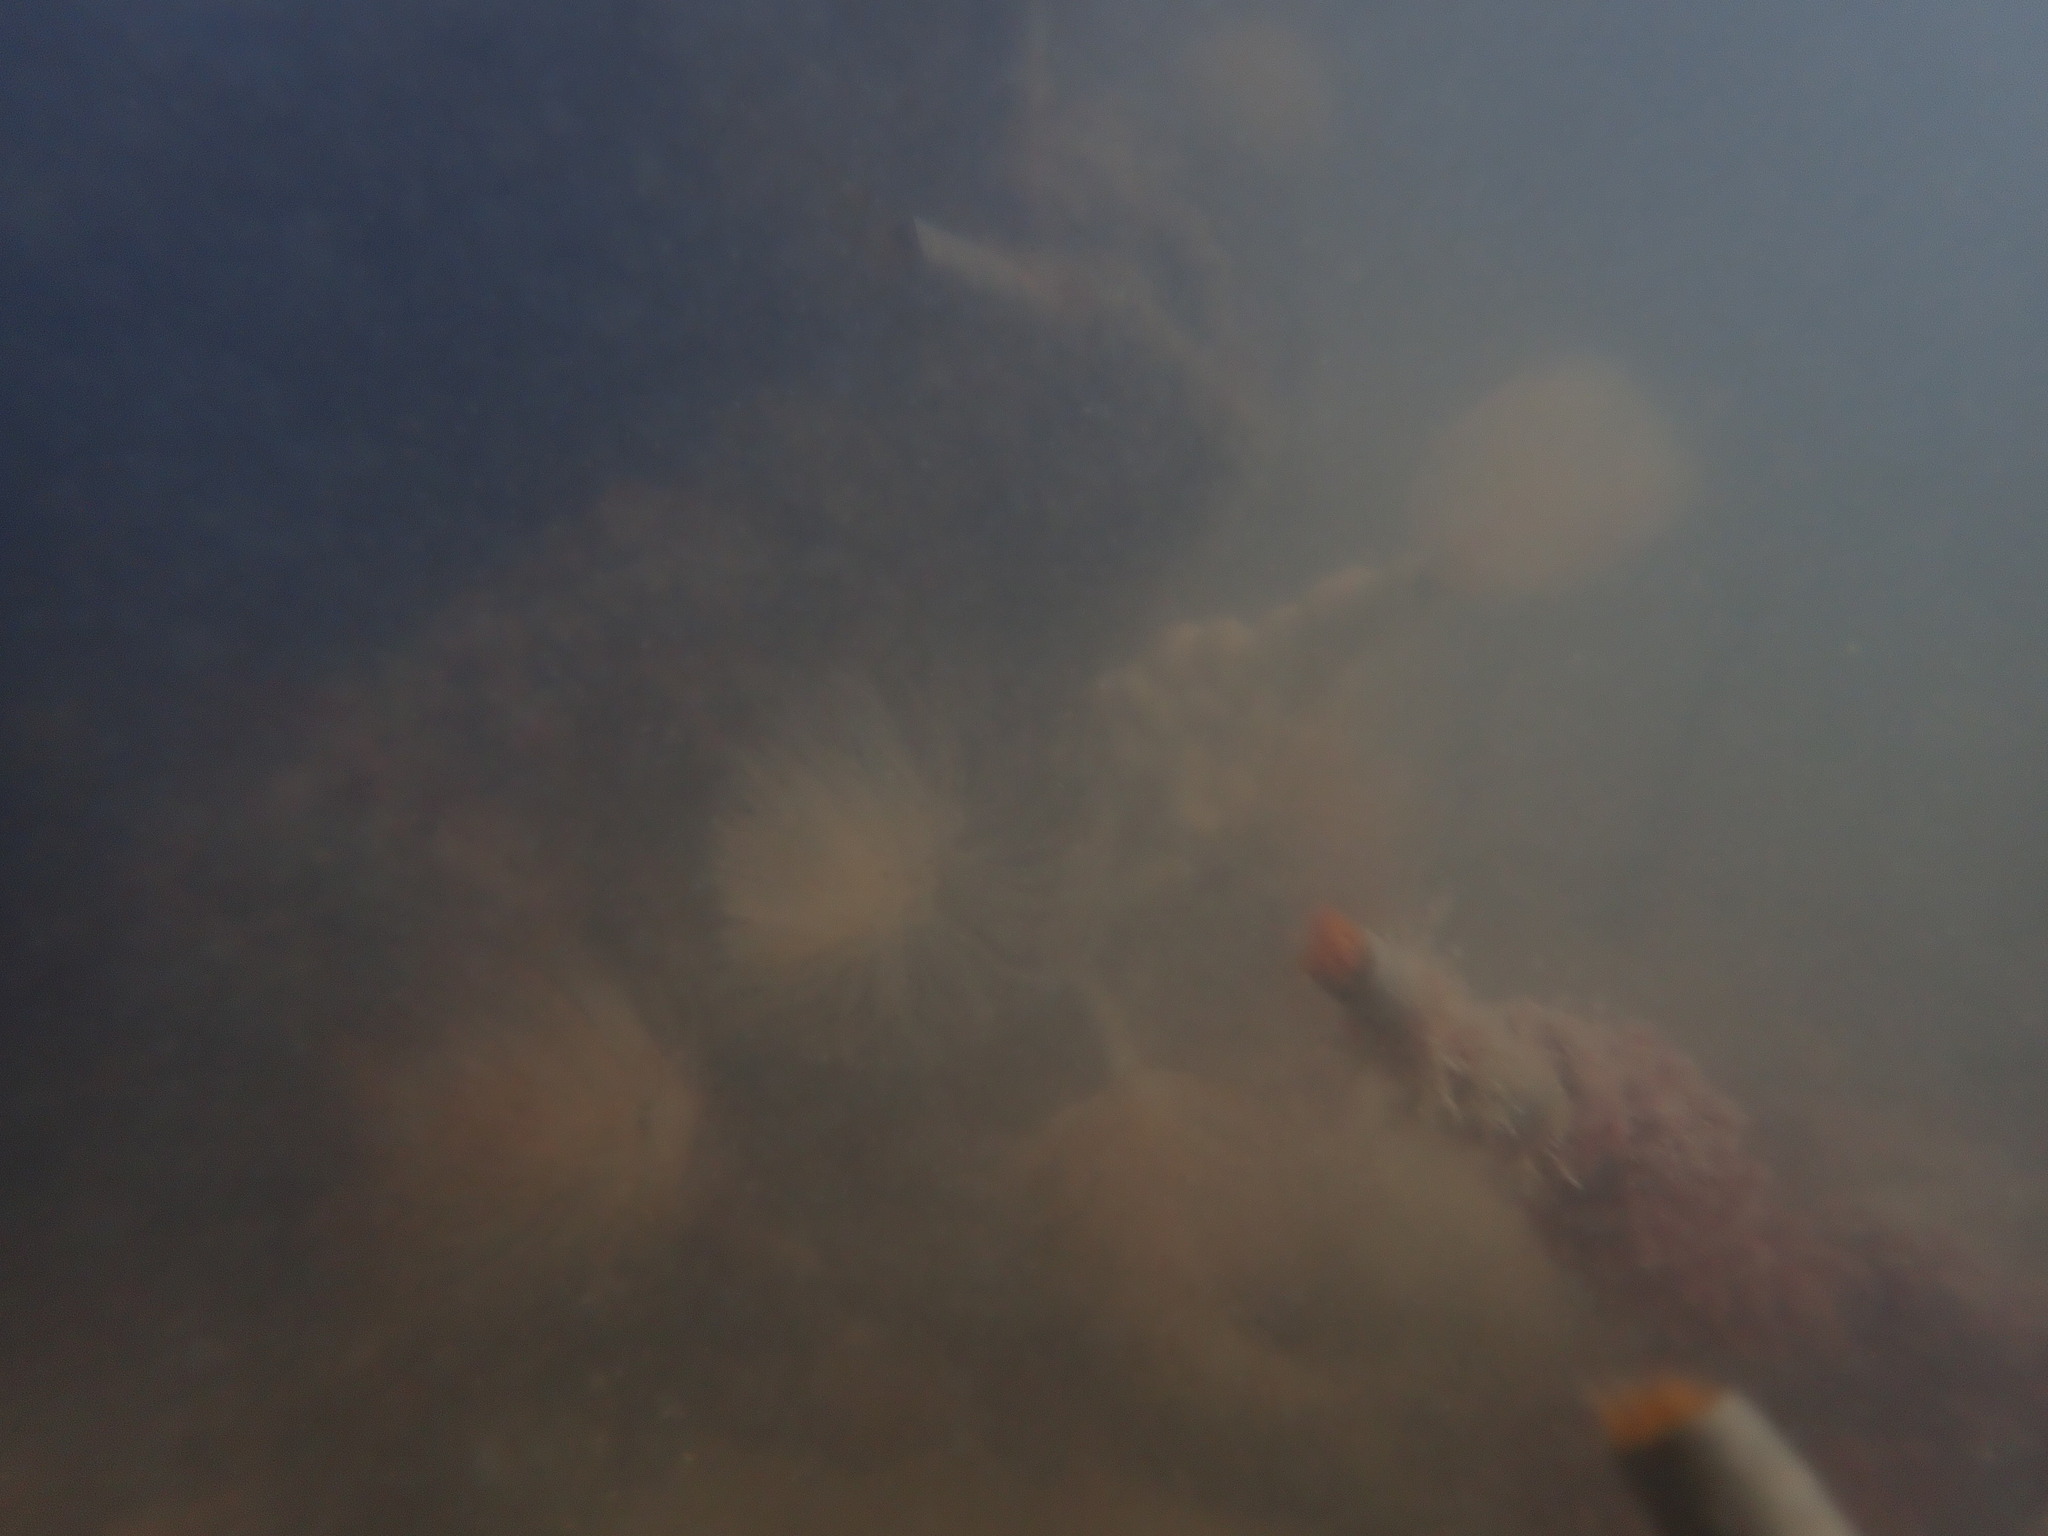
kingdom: Animalia
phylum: Annelida
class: Polychaeta
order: Sabellida
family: Sabellidae
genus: Sabella
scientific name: Sabella spallanzanii
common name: Feather duster worm
